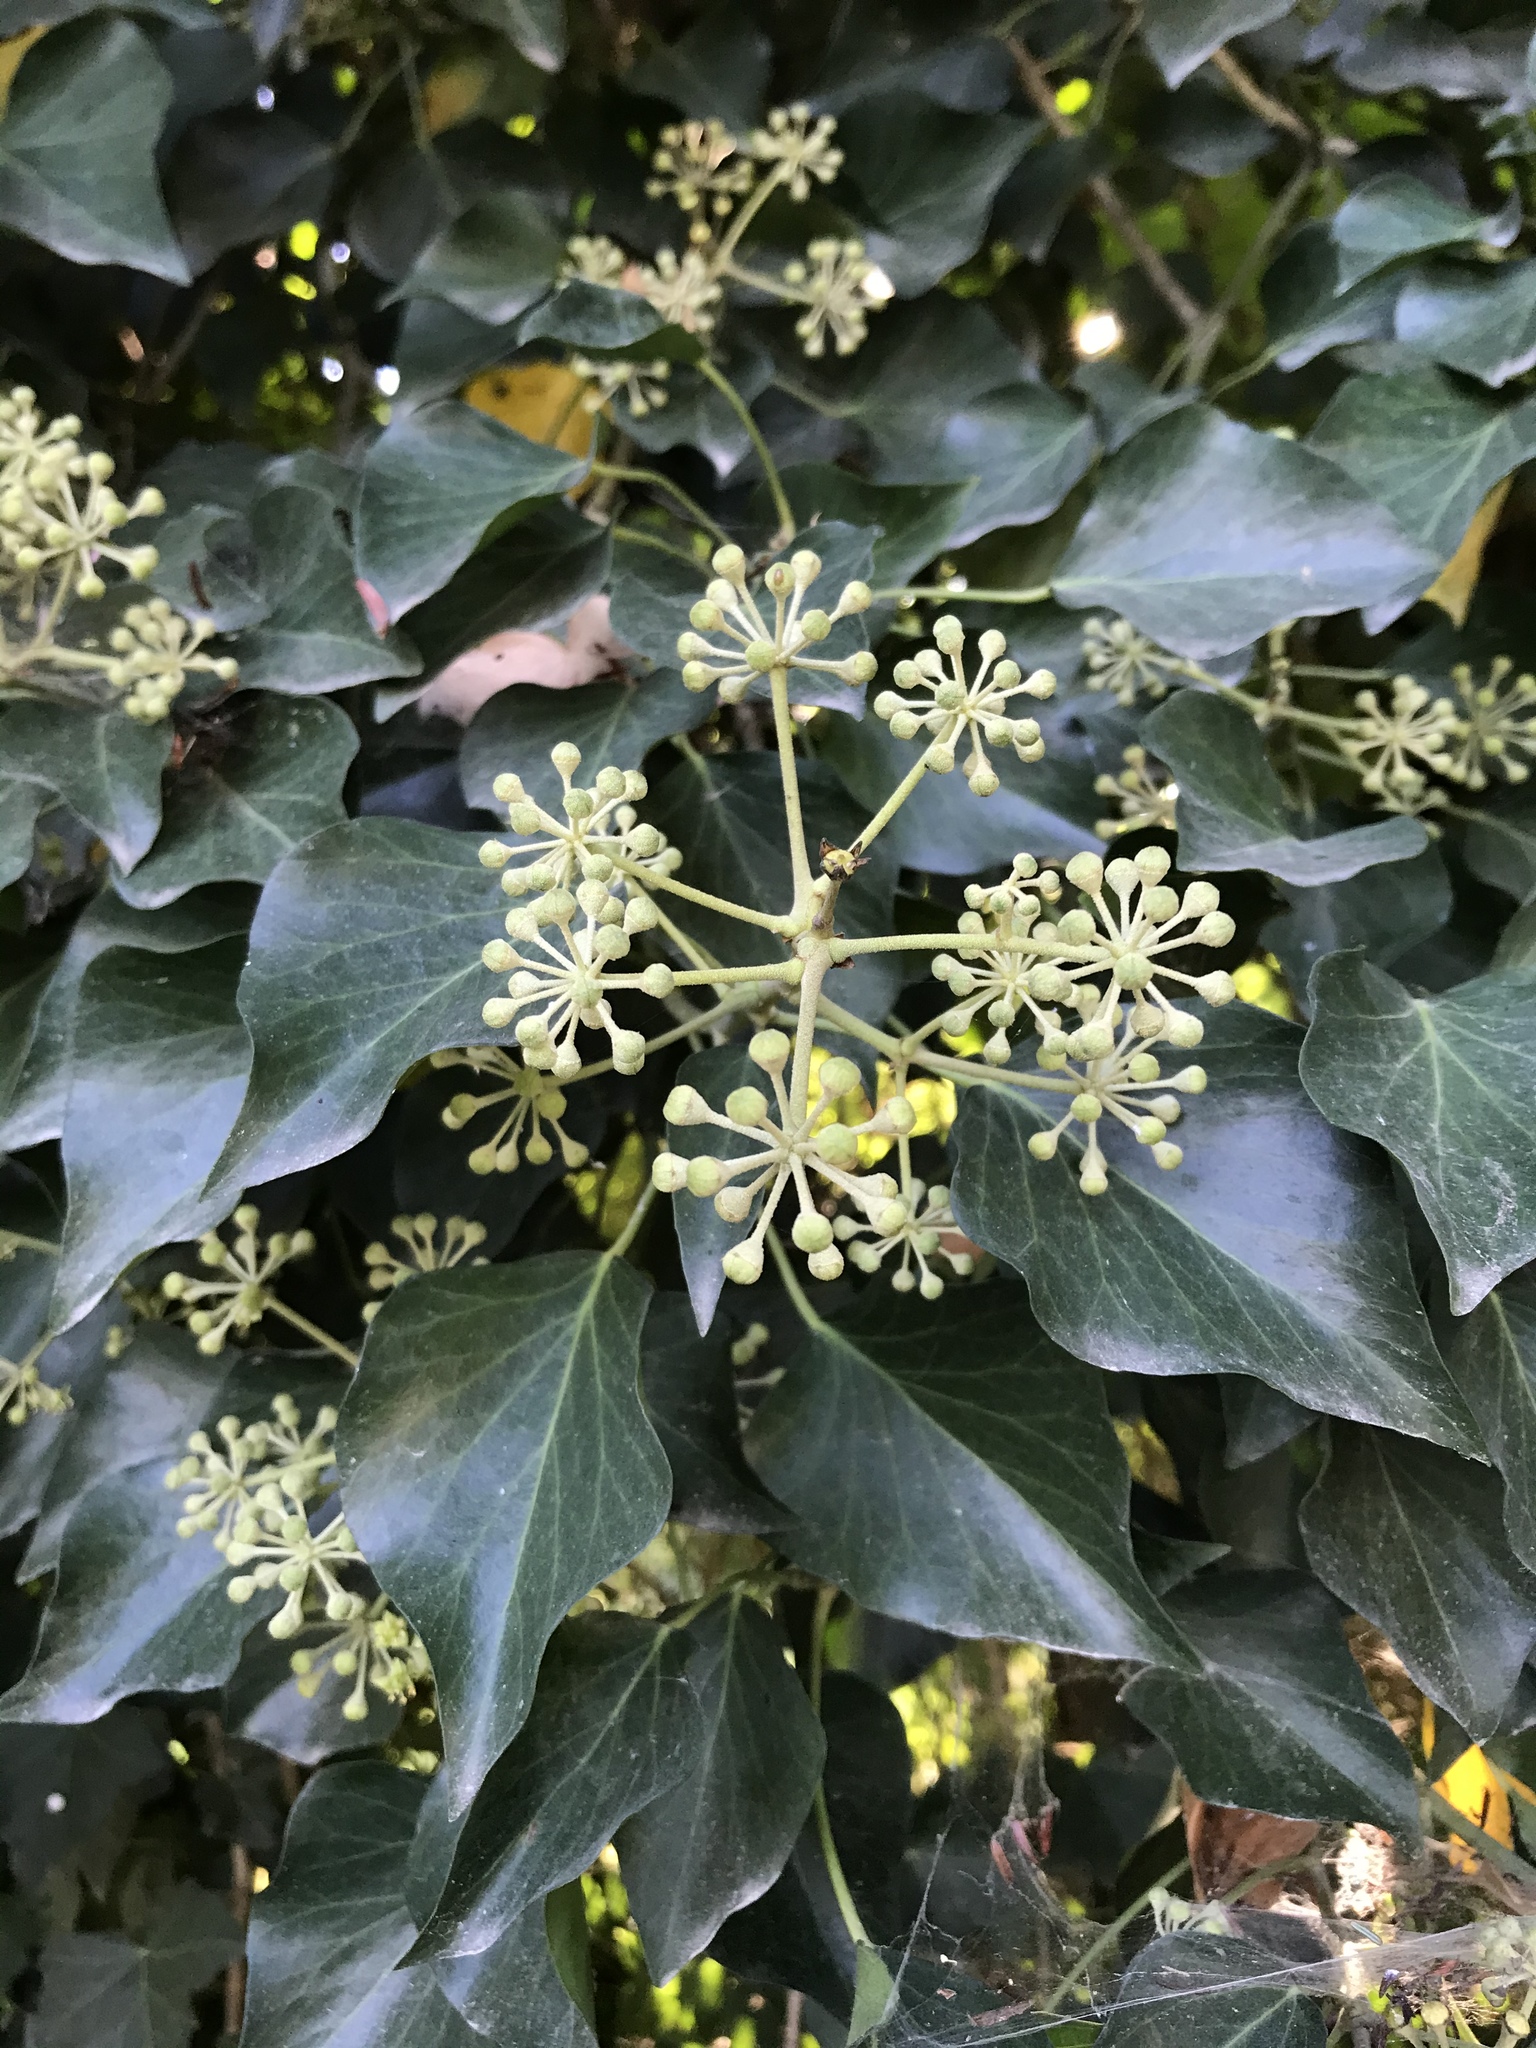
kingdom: Plantae
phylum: Tracheophyta
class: Magnoliopsida
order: Apiales
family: Araliaceae
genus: Hedera
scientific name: Hedera helix
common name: Ivy
